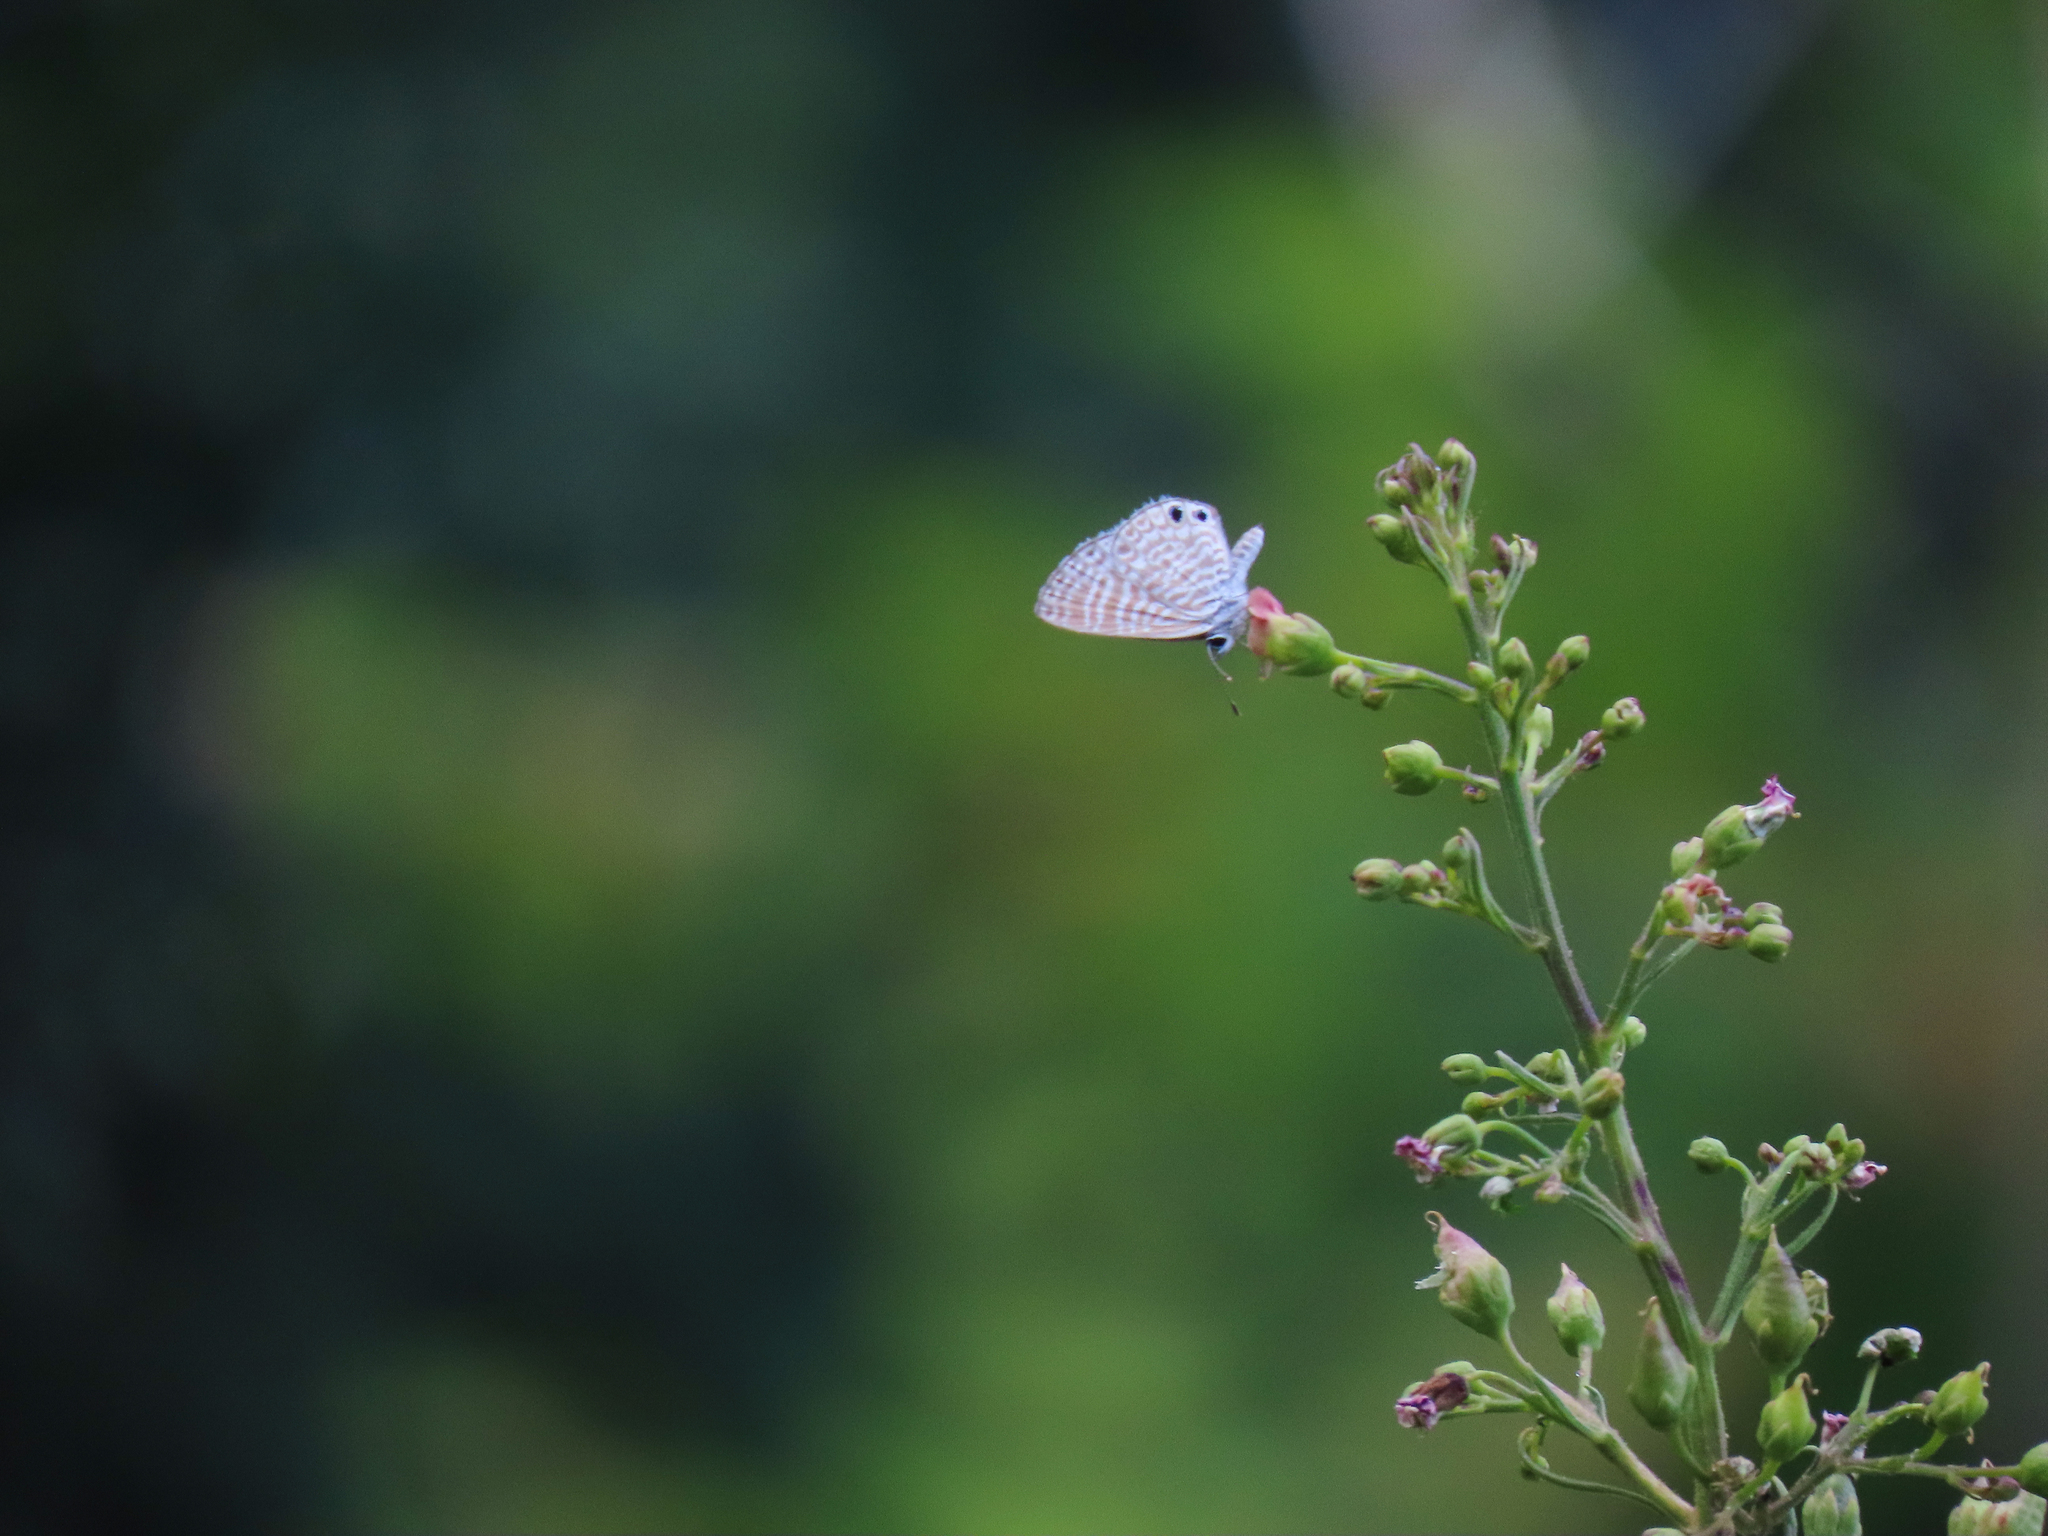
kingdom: Animalia
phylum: Arthropoda
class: Insecta
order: Lepidoptera
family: Lycaenidae
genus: Leptotes
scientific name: Leptotes marina
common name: Marine blue
